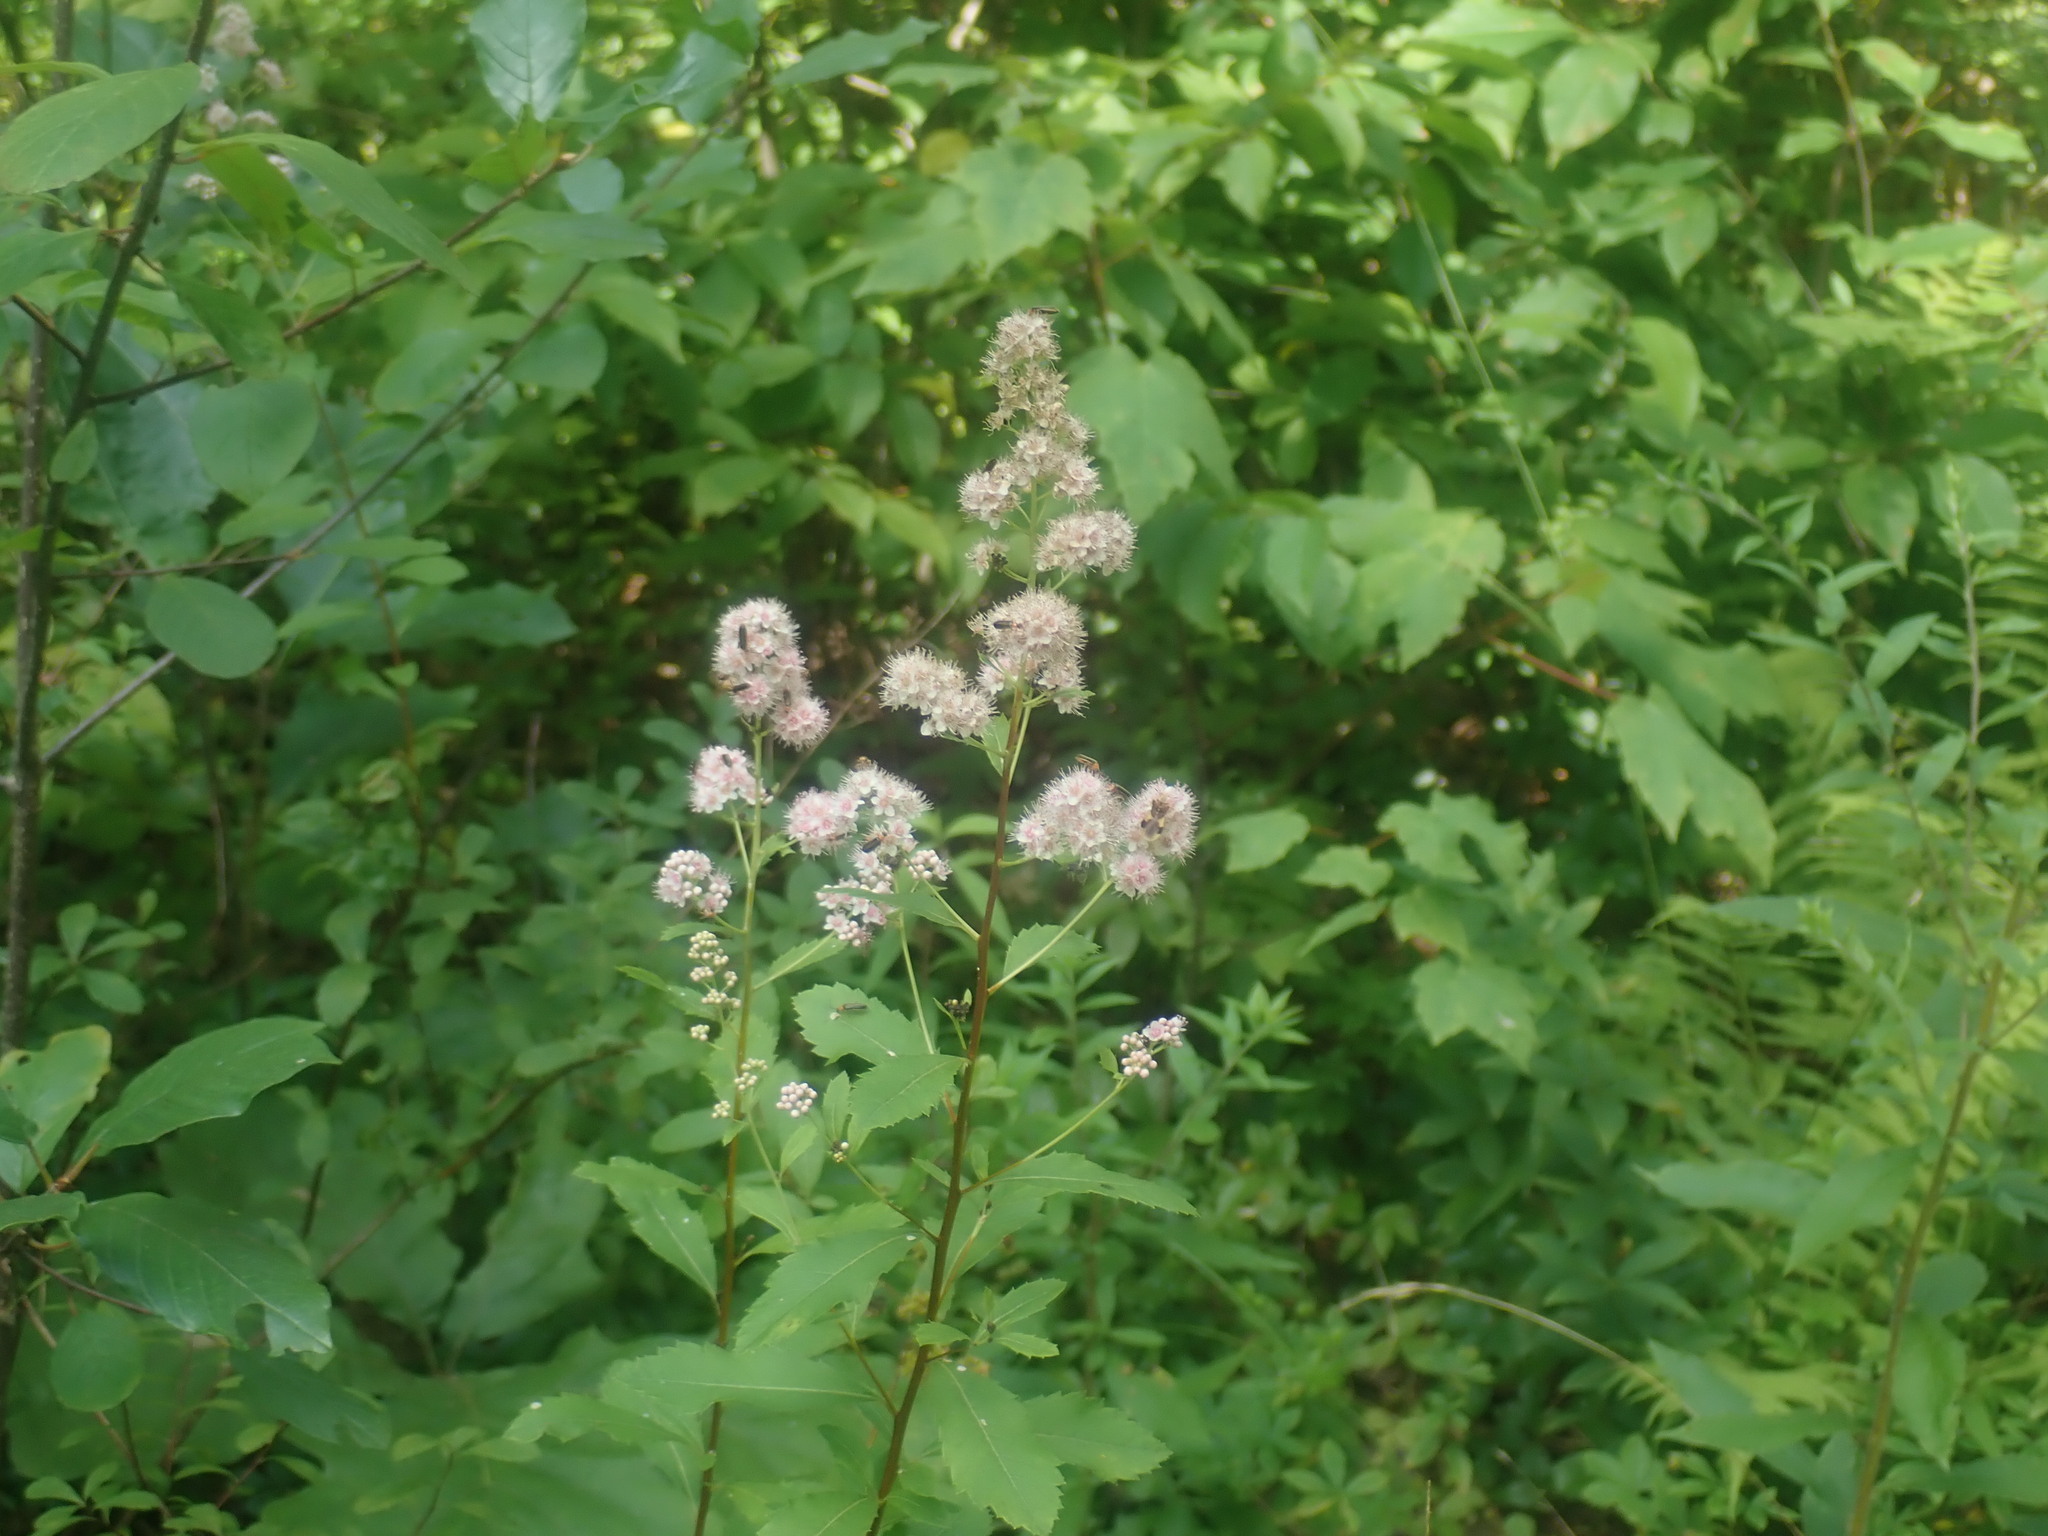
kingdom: Plantae
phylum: Tracheophyta
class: Magnoliopsida
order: Rosales
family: Rosaceae
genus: Spiraea
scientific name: Spiraea alba
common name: Pale bridewort
